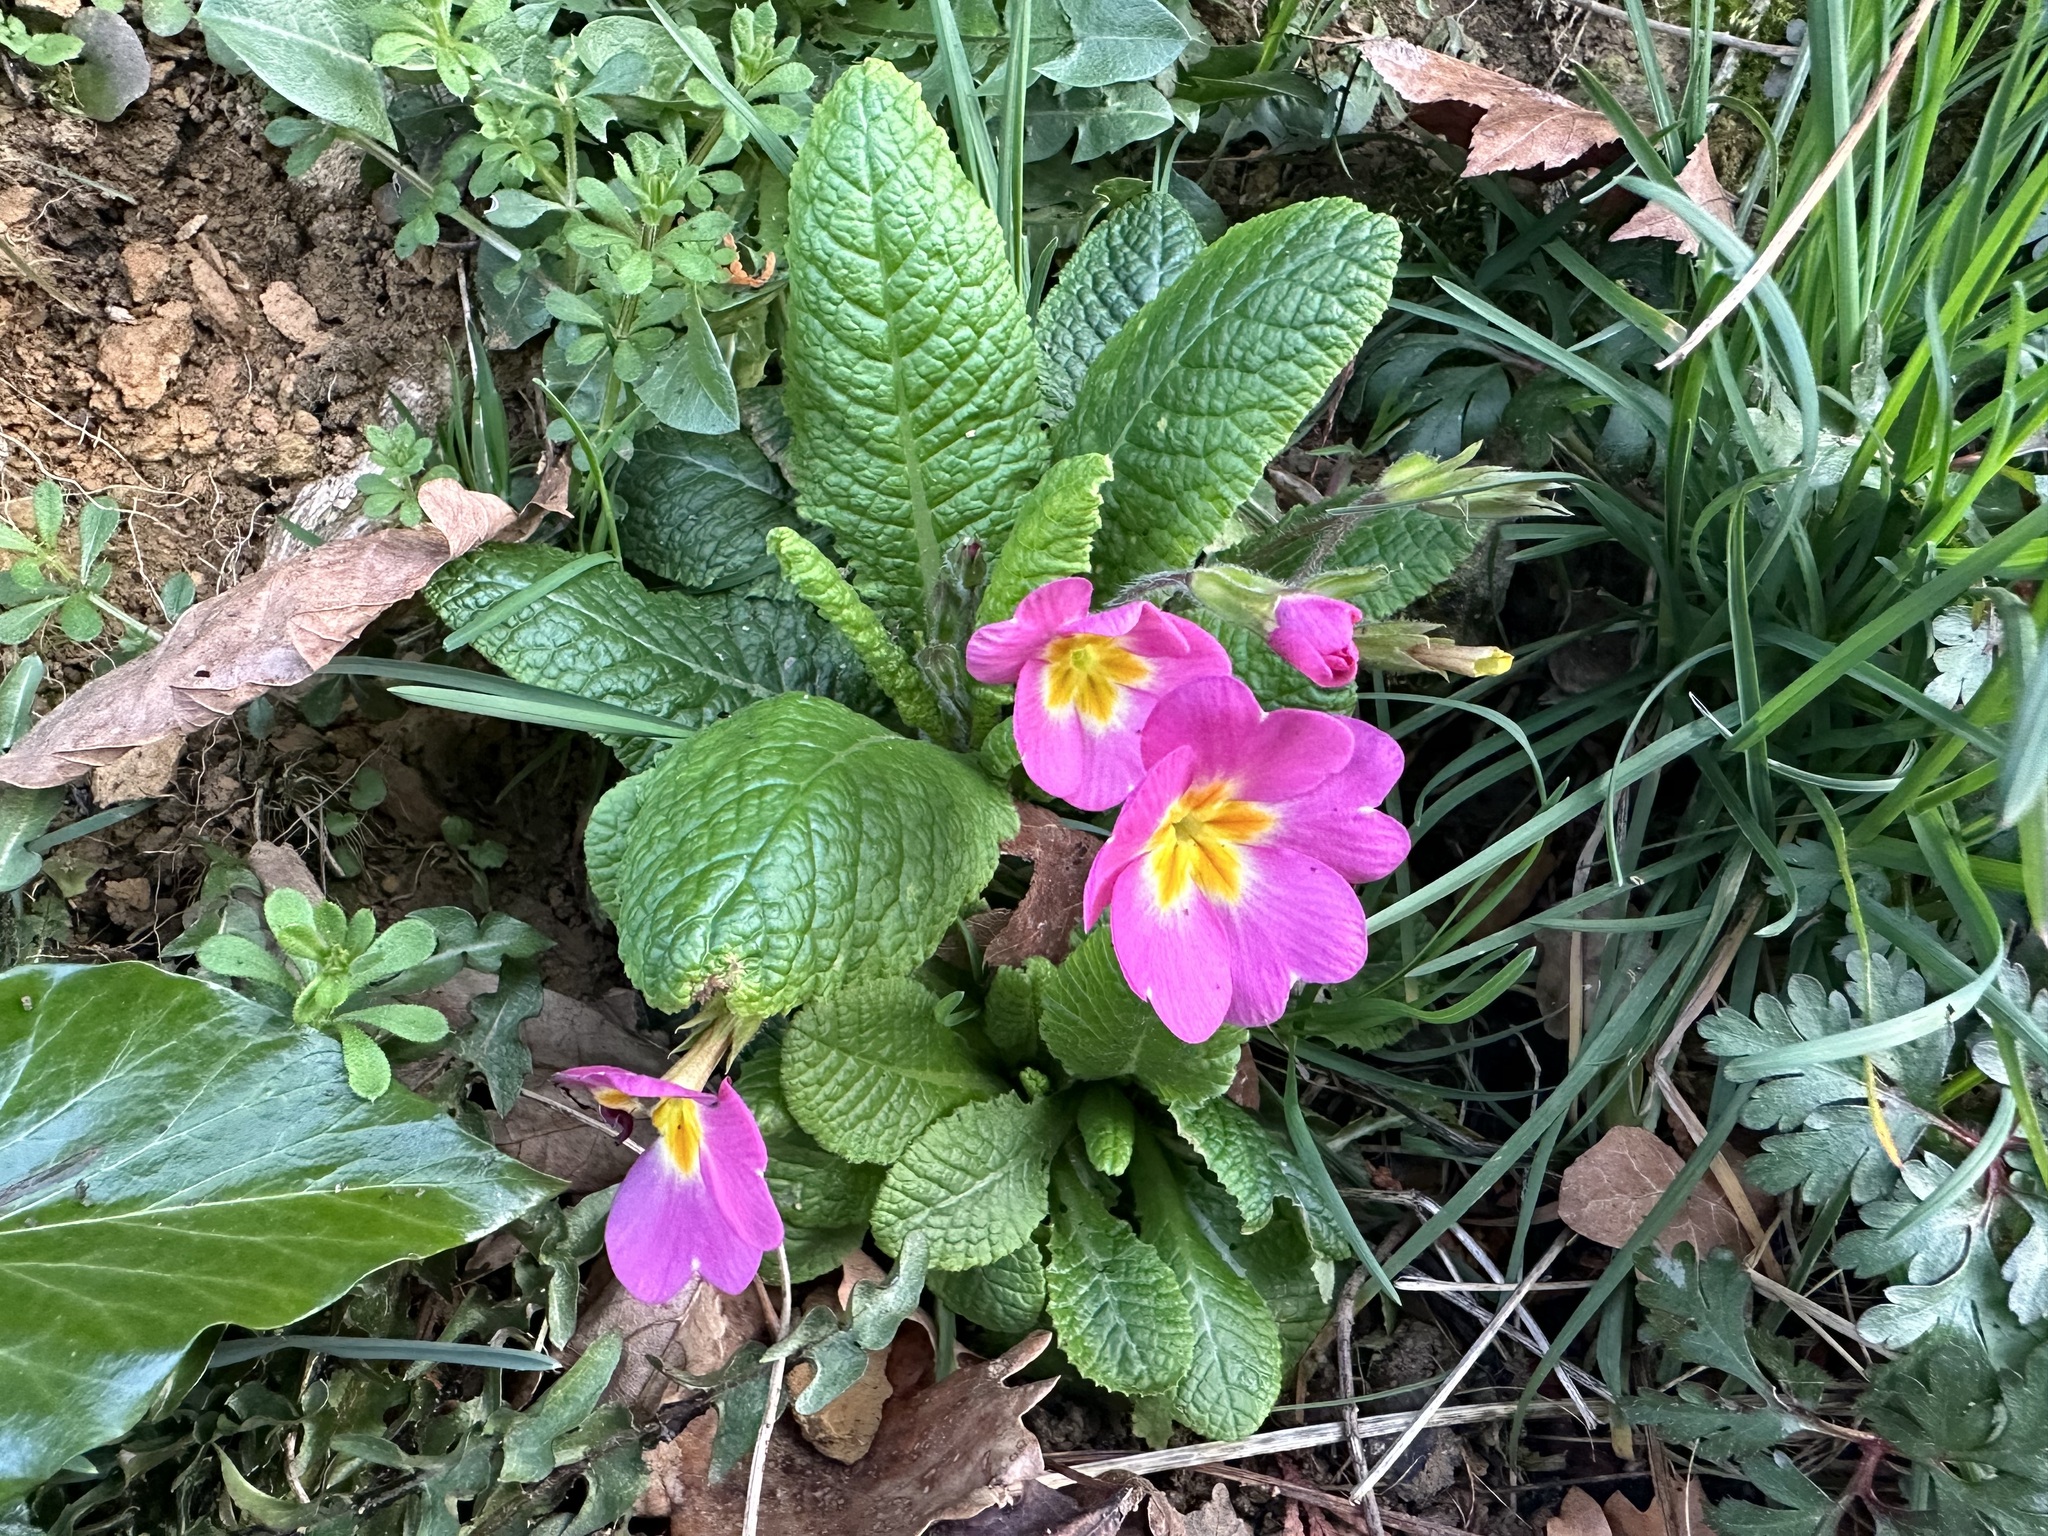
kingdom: Plantae
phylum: Tracheophyta
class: Magnoliopsida
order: Ericales
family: Primulaceae
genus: Primula
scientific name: Primula vulgaris
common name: Primrose
